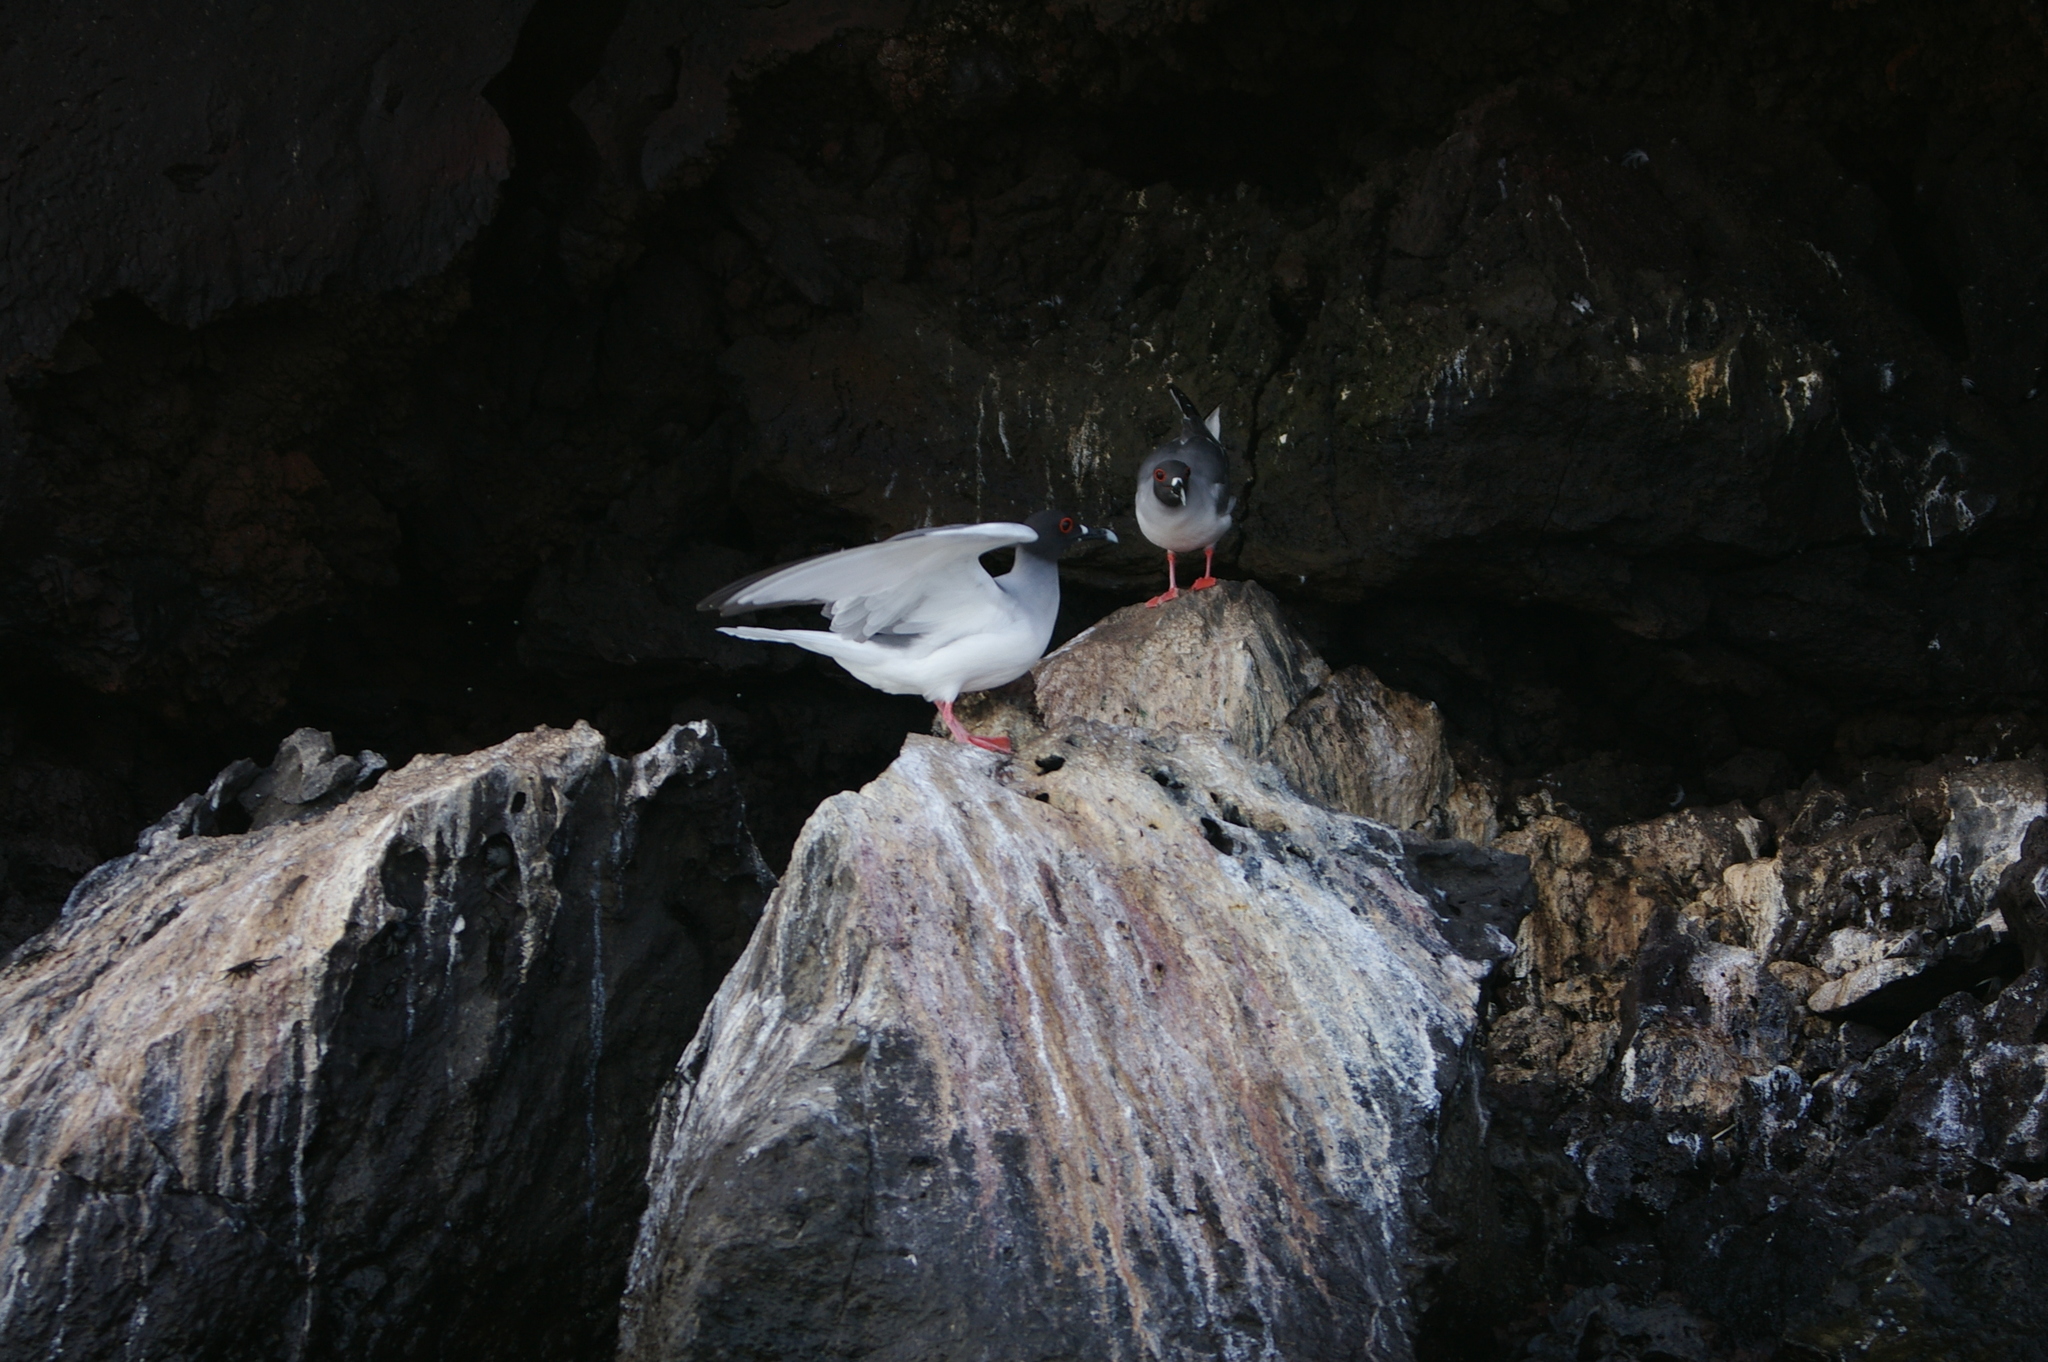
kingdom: Animalia
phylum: Chordata
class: Aves
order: Charadriiformes
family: Laridae
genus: Creagrus
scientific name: Creagrus furcatus
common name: Swallow-tailed gull
